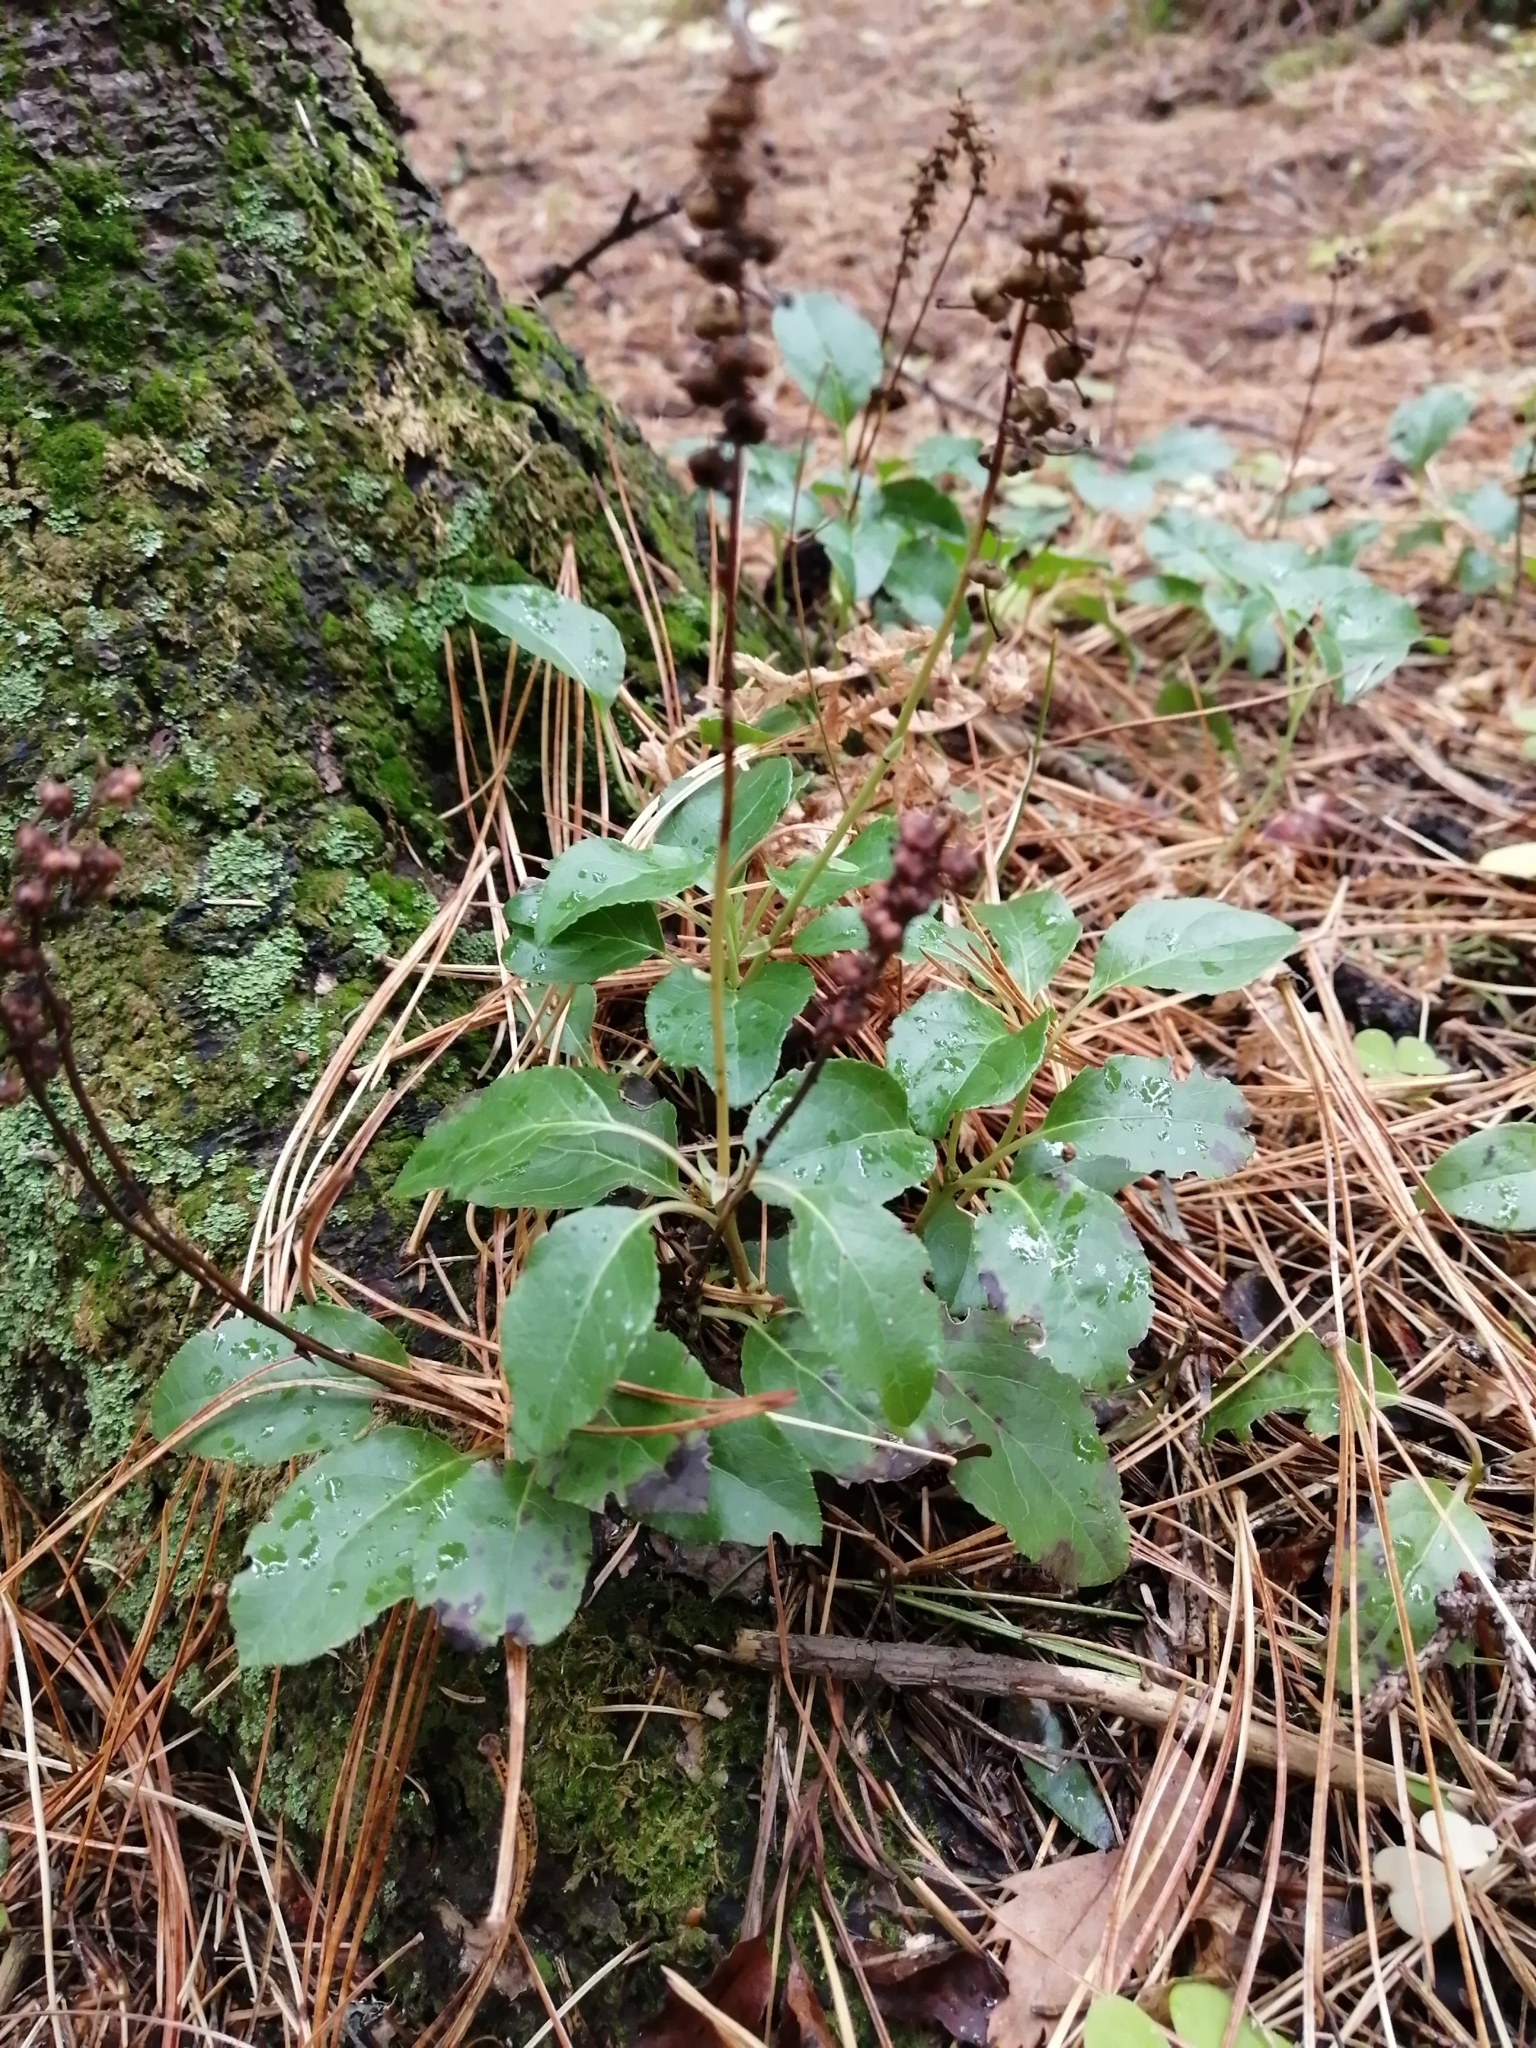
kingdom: Plantae
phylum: Tracheophyta
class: Magnoliopsida
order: Ericales
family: Ericaceae
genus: Orthilia
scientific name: Orthilia secunda
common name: One-sided orthilia
